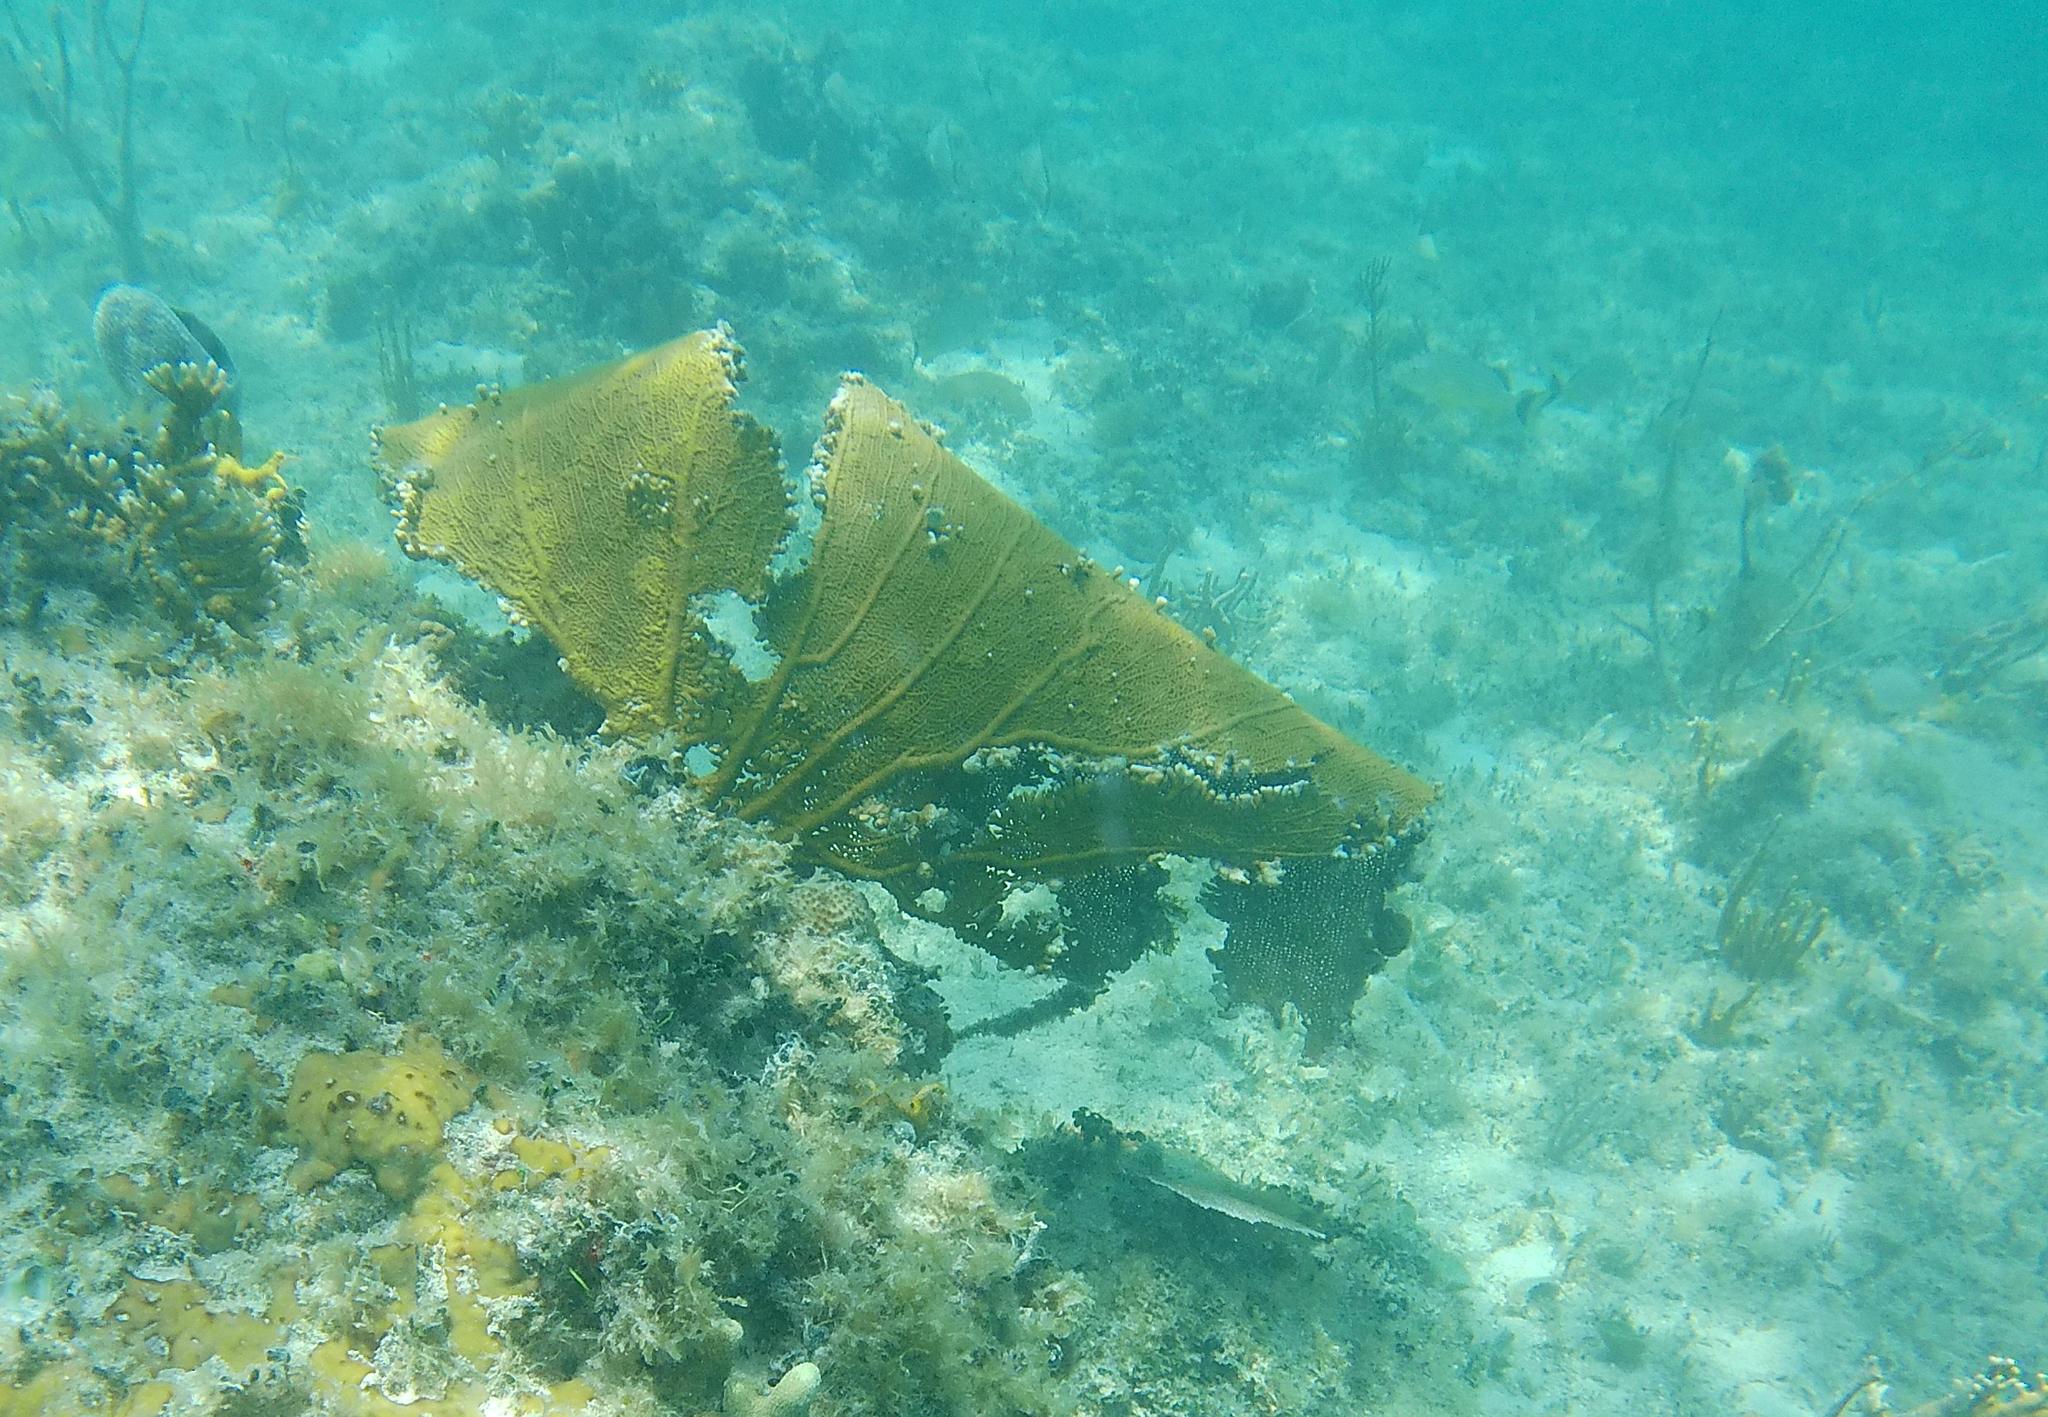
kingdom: Animalia
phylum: Cnidaria
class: Hydrozoa
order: Anthoathecata
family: Milleporidae
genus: Millepora
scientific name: Millepora alcicornis
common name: Branching fire coral
